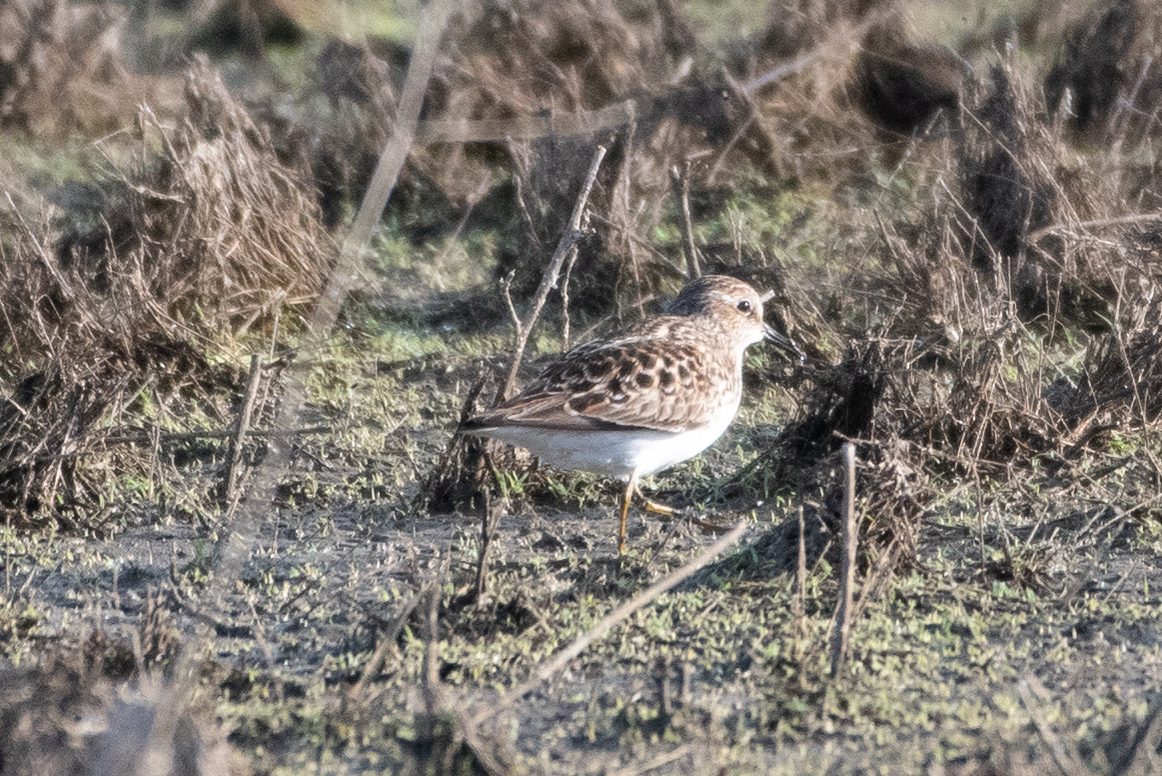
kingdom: Animalia
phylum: Chordata
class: Aves
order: Charadriiformes
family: Scolopacidae
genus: Calidris
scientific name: Calidris minutilla
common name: Least sandpiper
